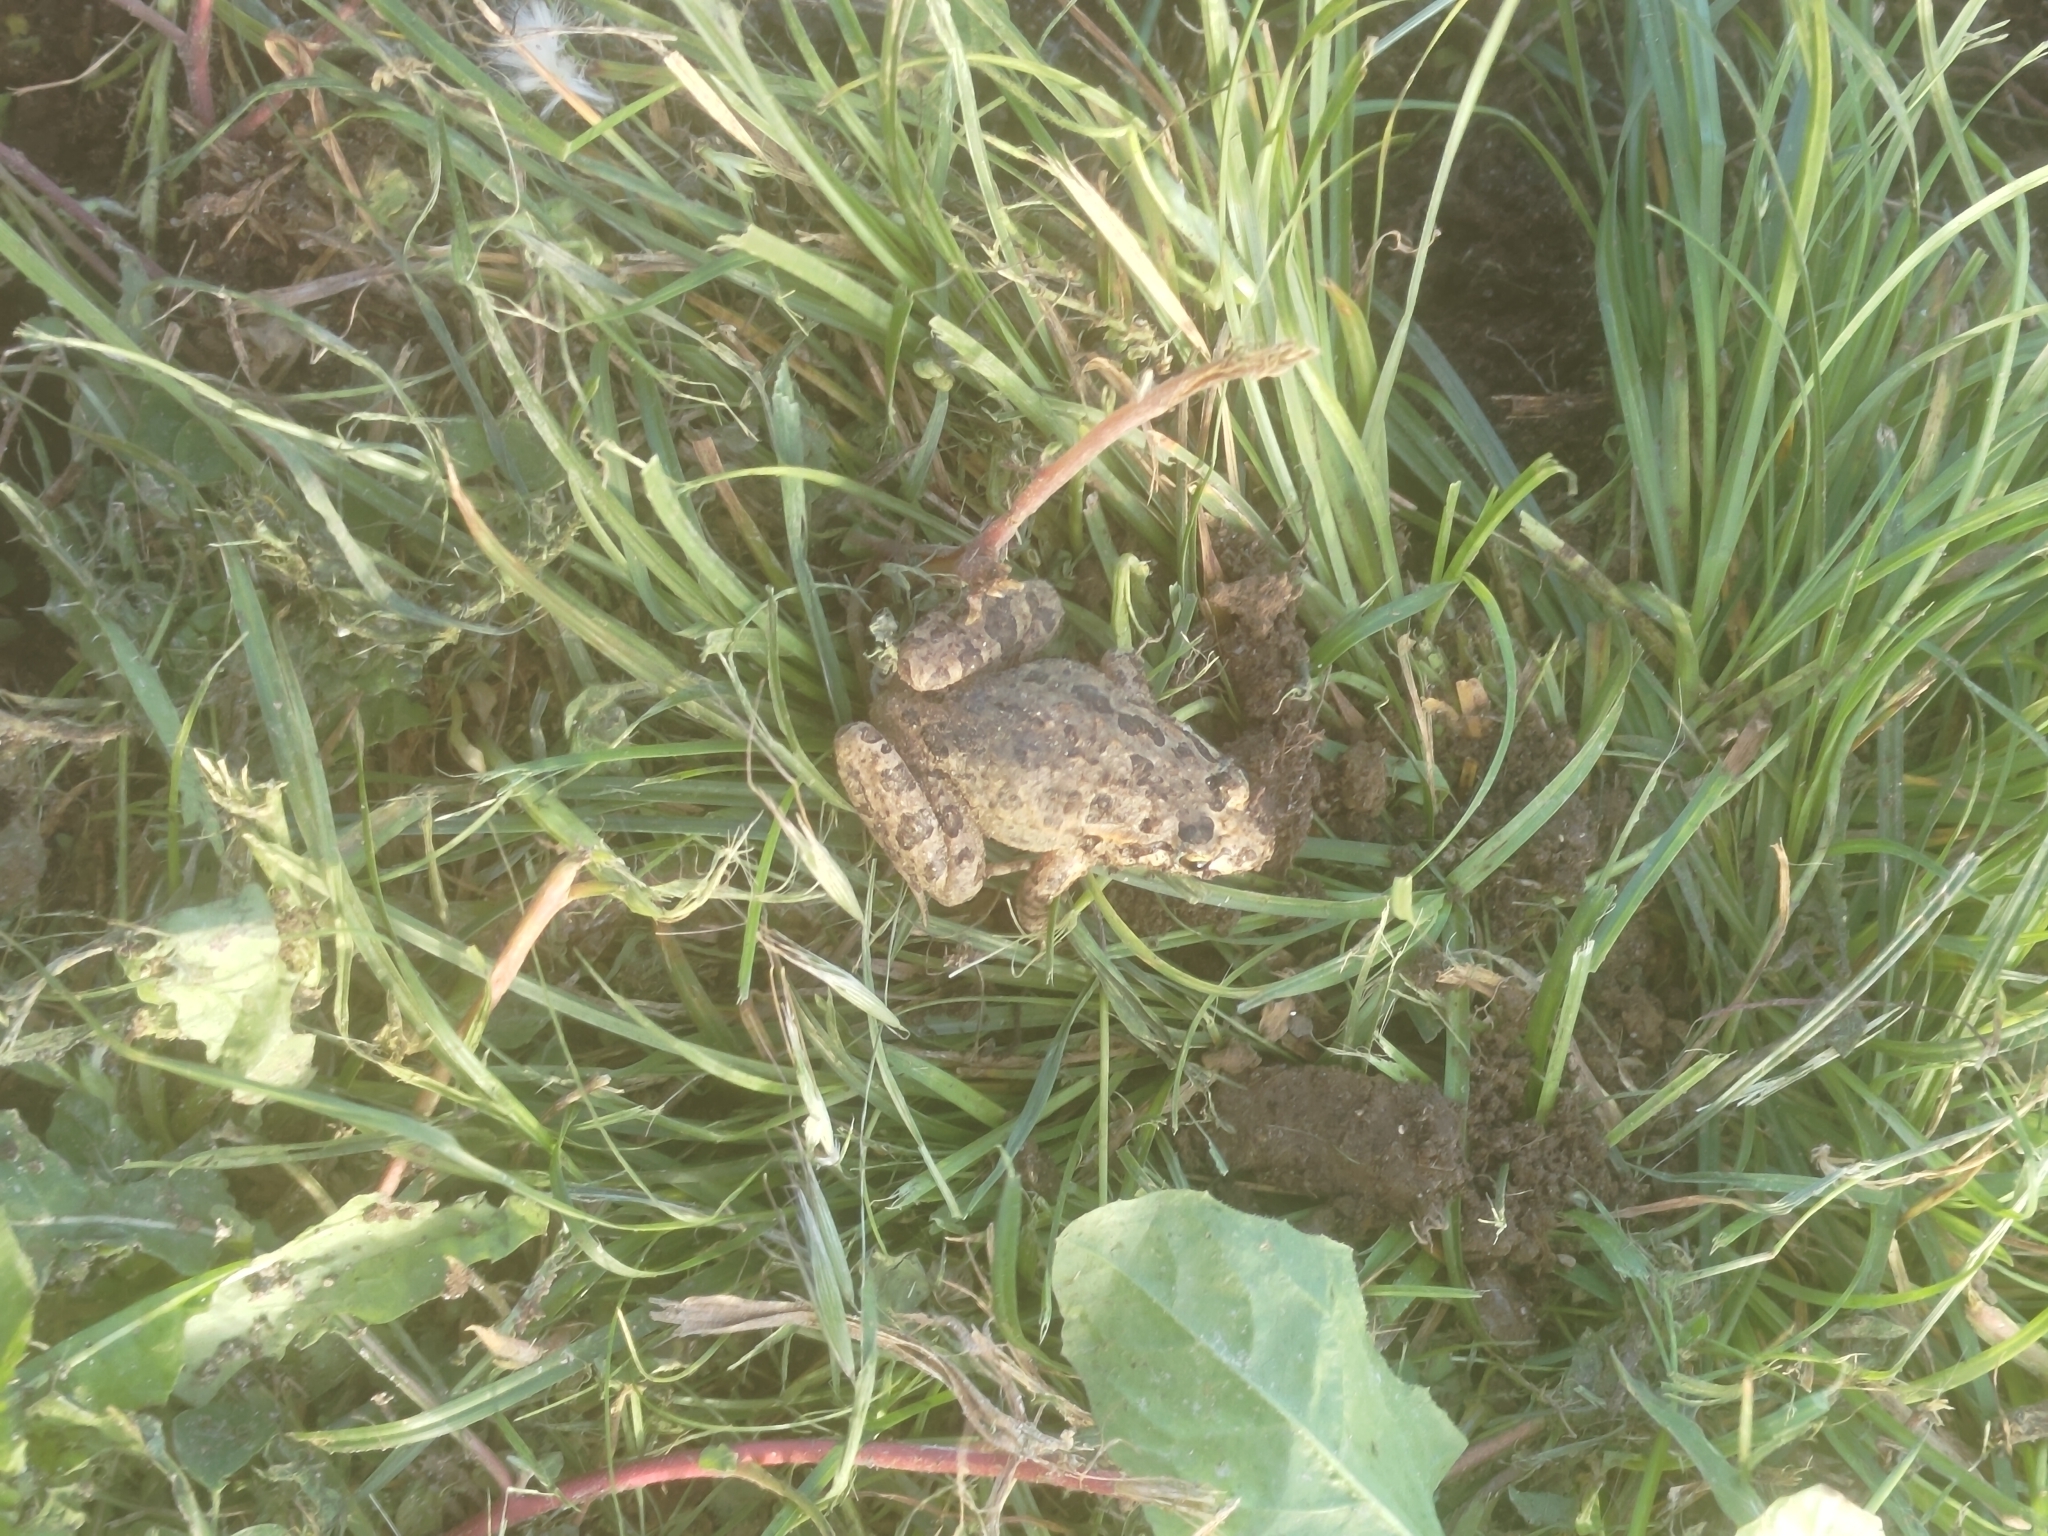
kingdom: Animalia
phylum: Chordata
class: Amphibia
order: Anura
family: Alytidae
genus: Discoglossus
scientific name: Discoglossus galganoi
